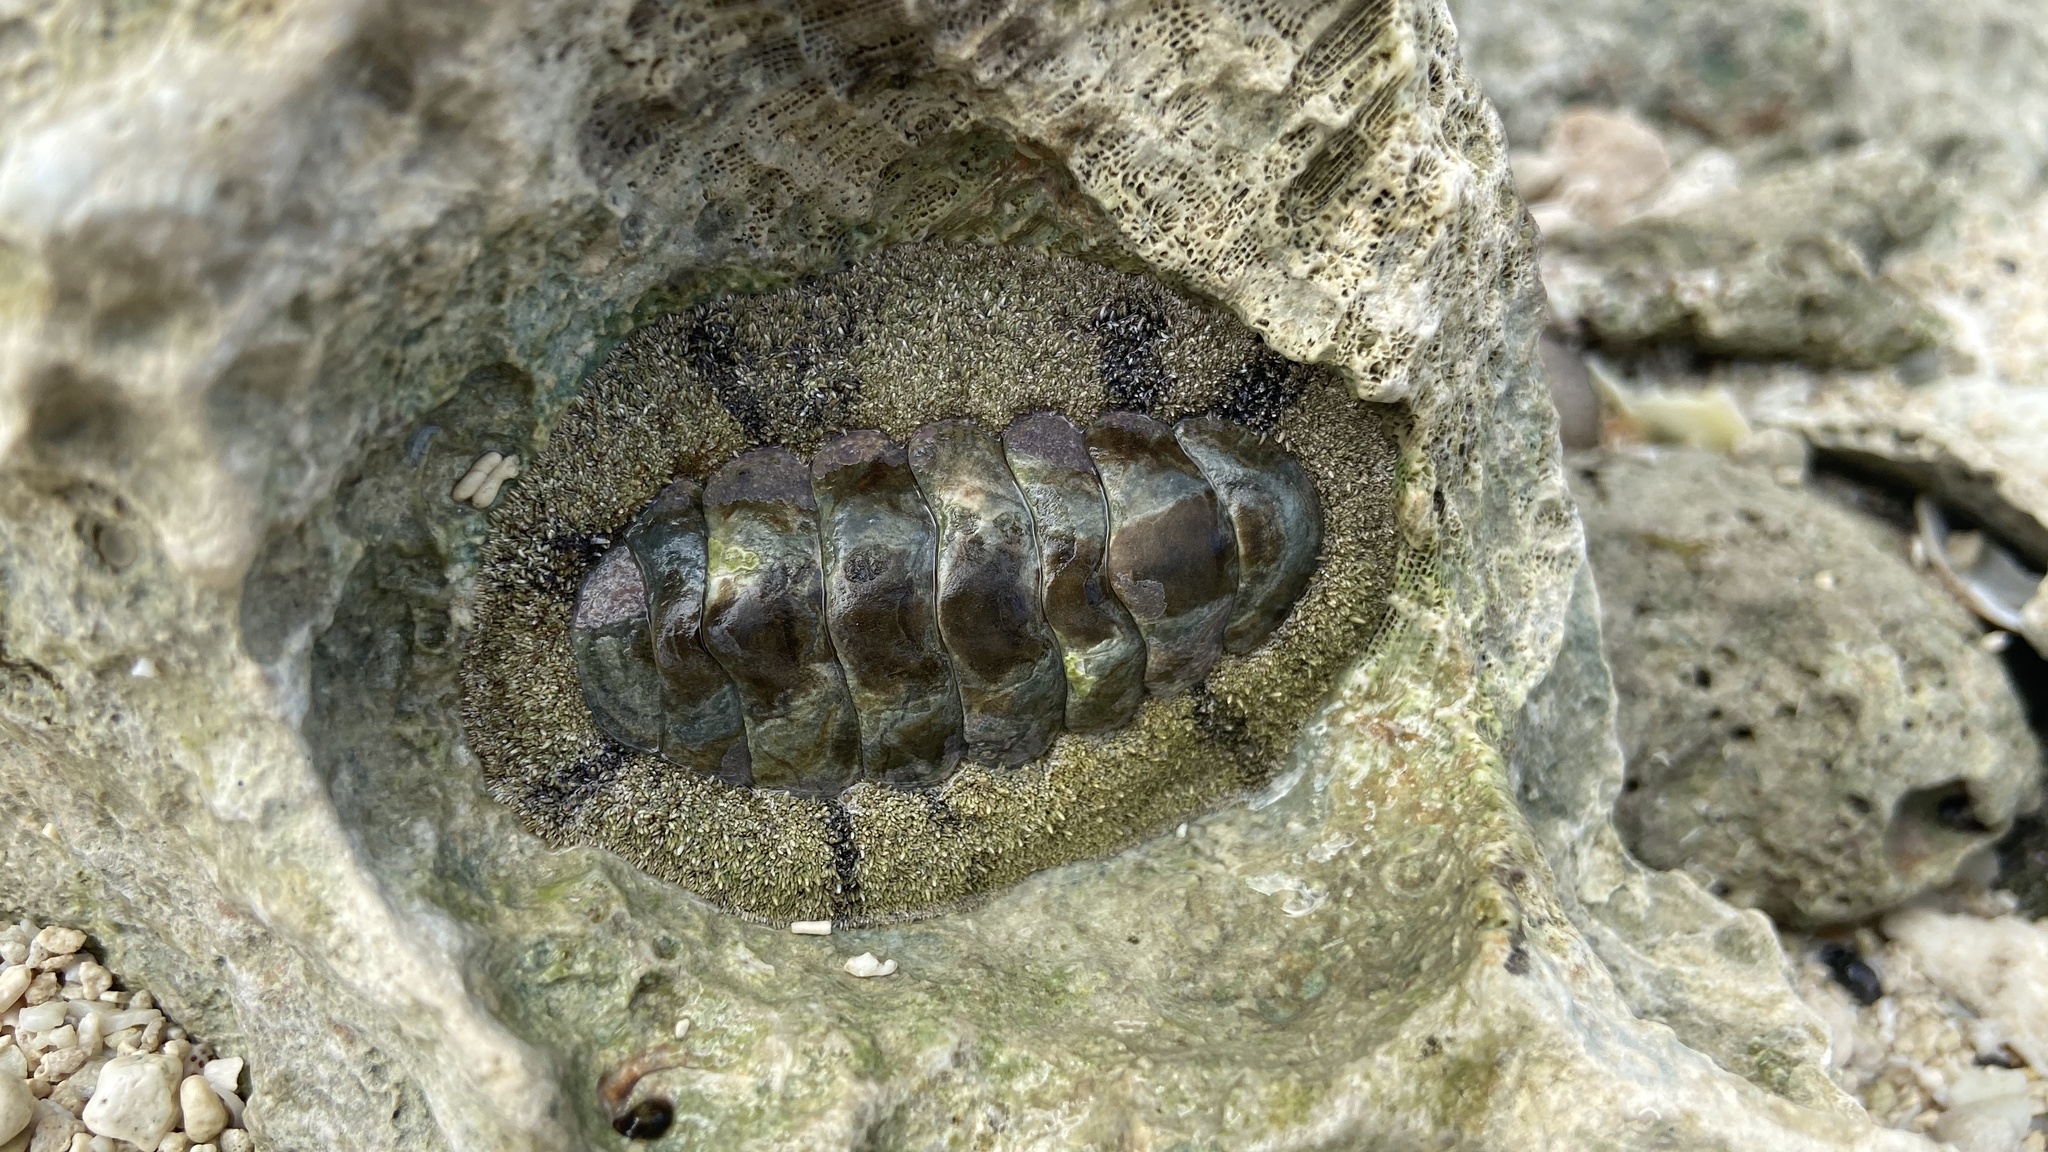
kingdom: Animalia
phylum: Mollusca
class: Polyplacophora
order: Chitonida
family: Chitonidae
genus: Acanthopleura
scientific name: Acanthopleura granulata
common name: West indian fuzzy chiton
